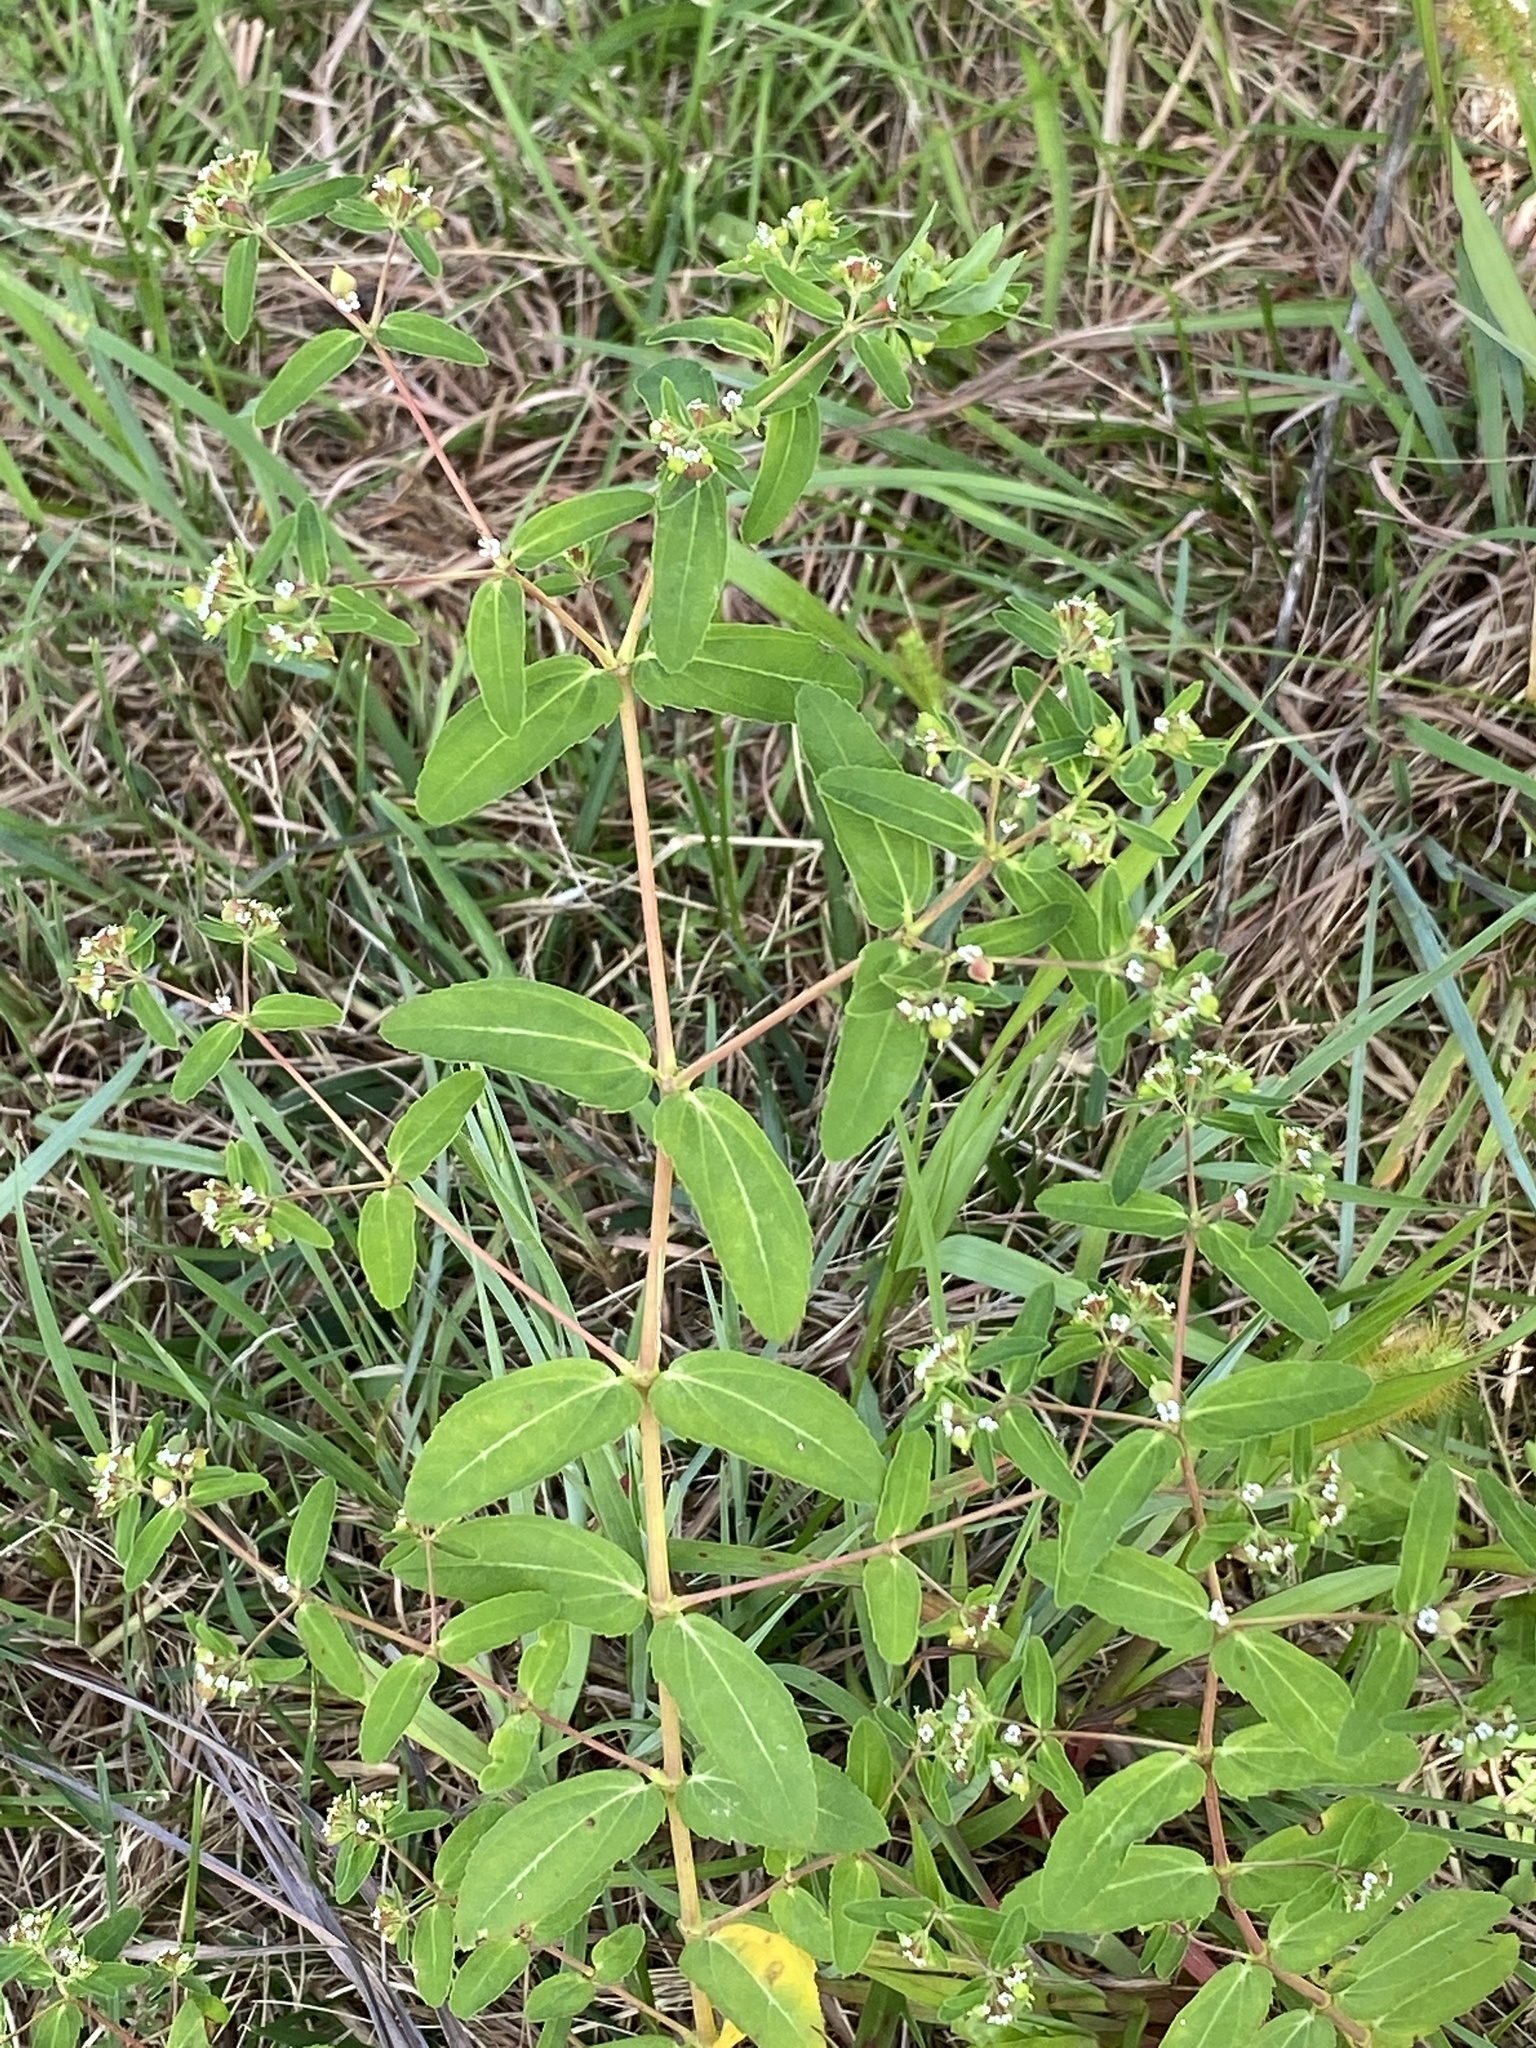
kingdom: Plantae
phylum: Tracheophyta
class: Magnoliopsida
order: Malpighiales
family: Euphorbiaceae
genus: Euphorbia
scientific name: Euphorbia nutans
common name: Eyebane
